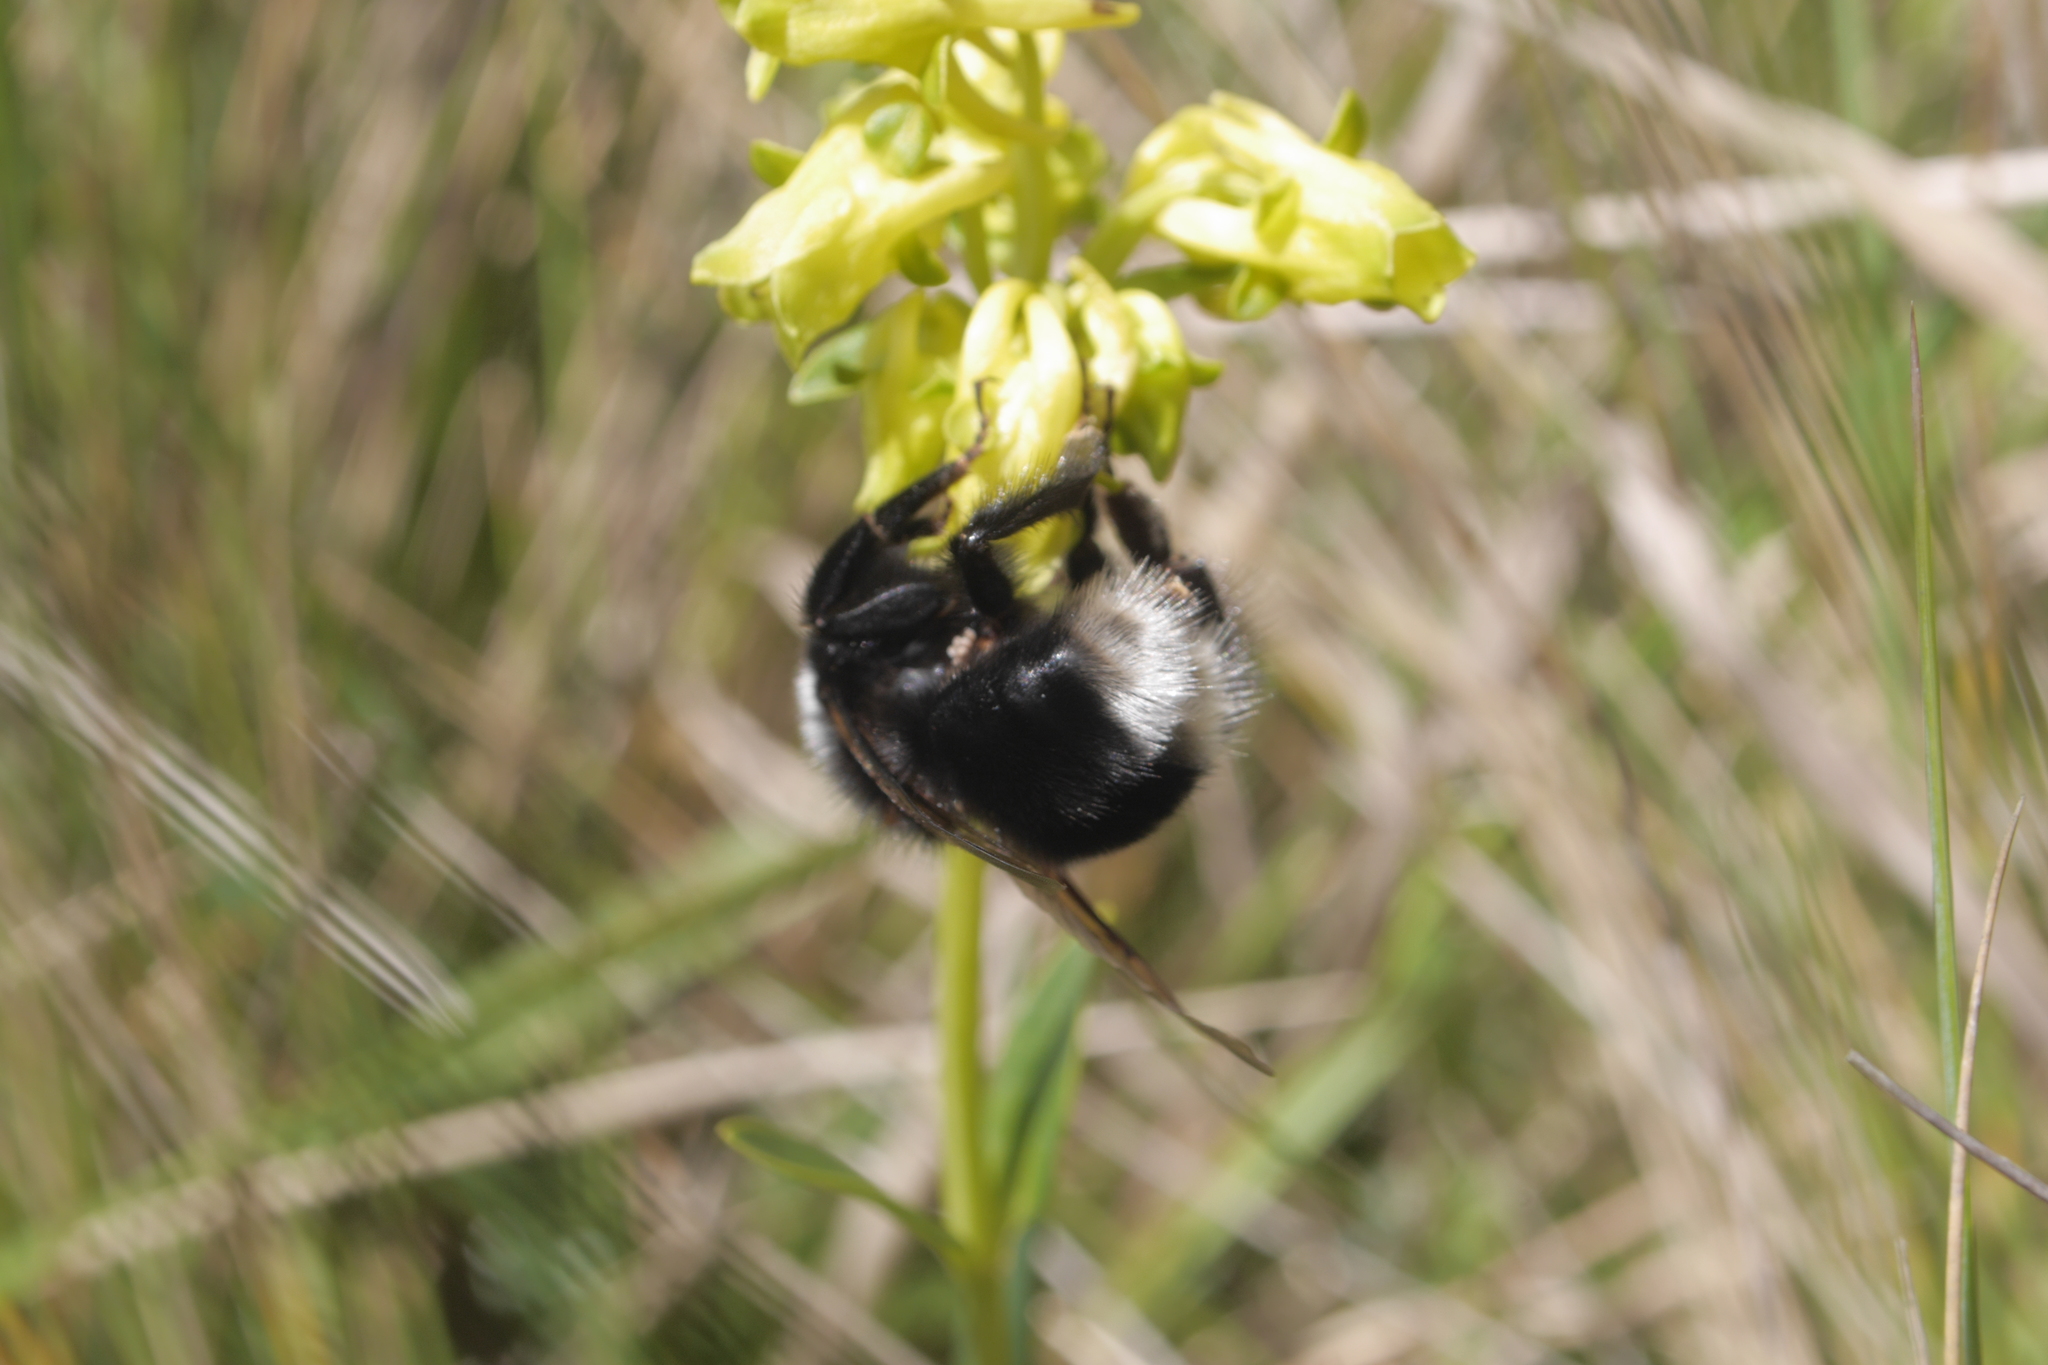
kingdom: Animalia
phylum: Arthropoda
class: Insecta
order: Hymenoptera
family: Apidae
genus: Bombus
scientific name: Bombus funebris
